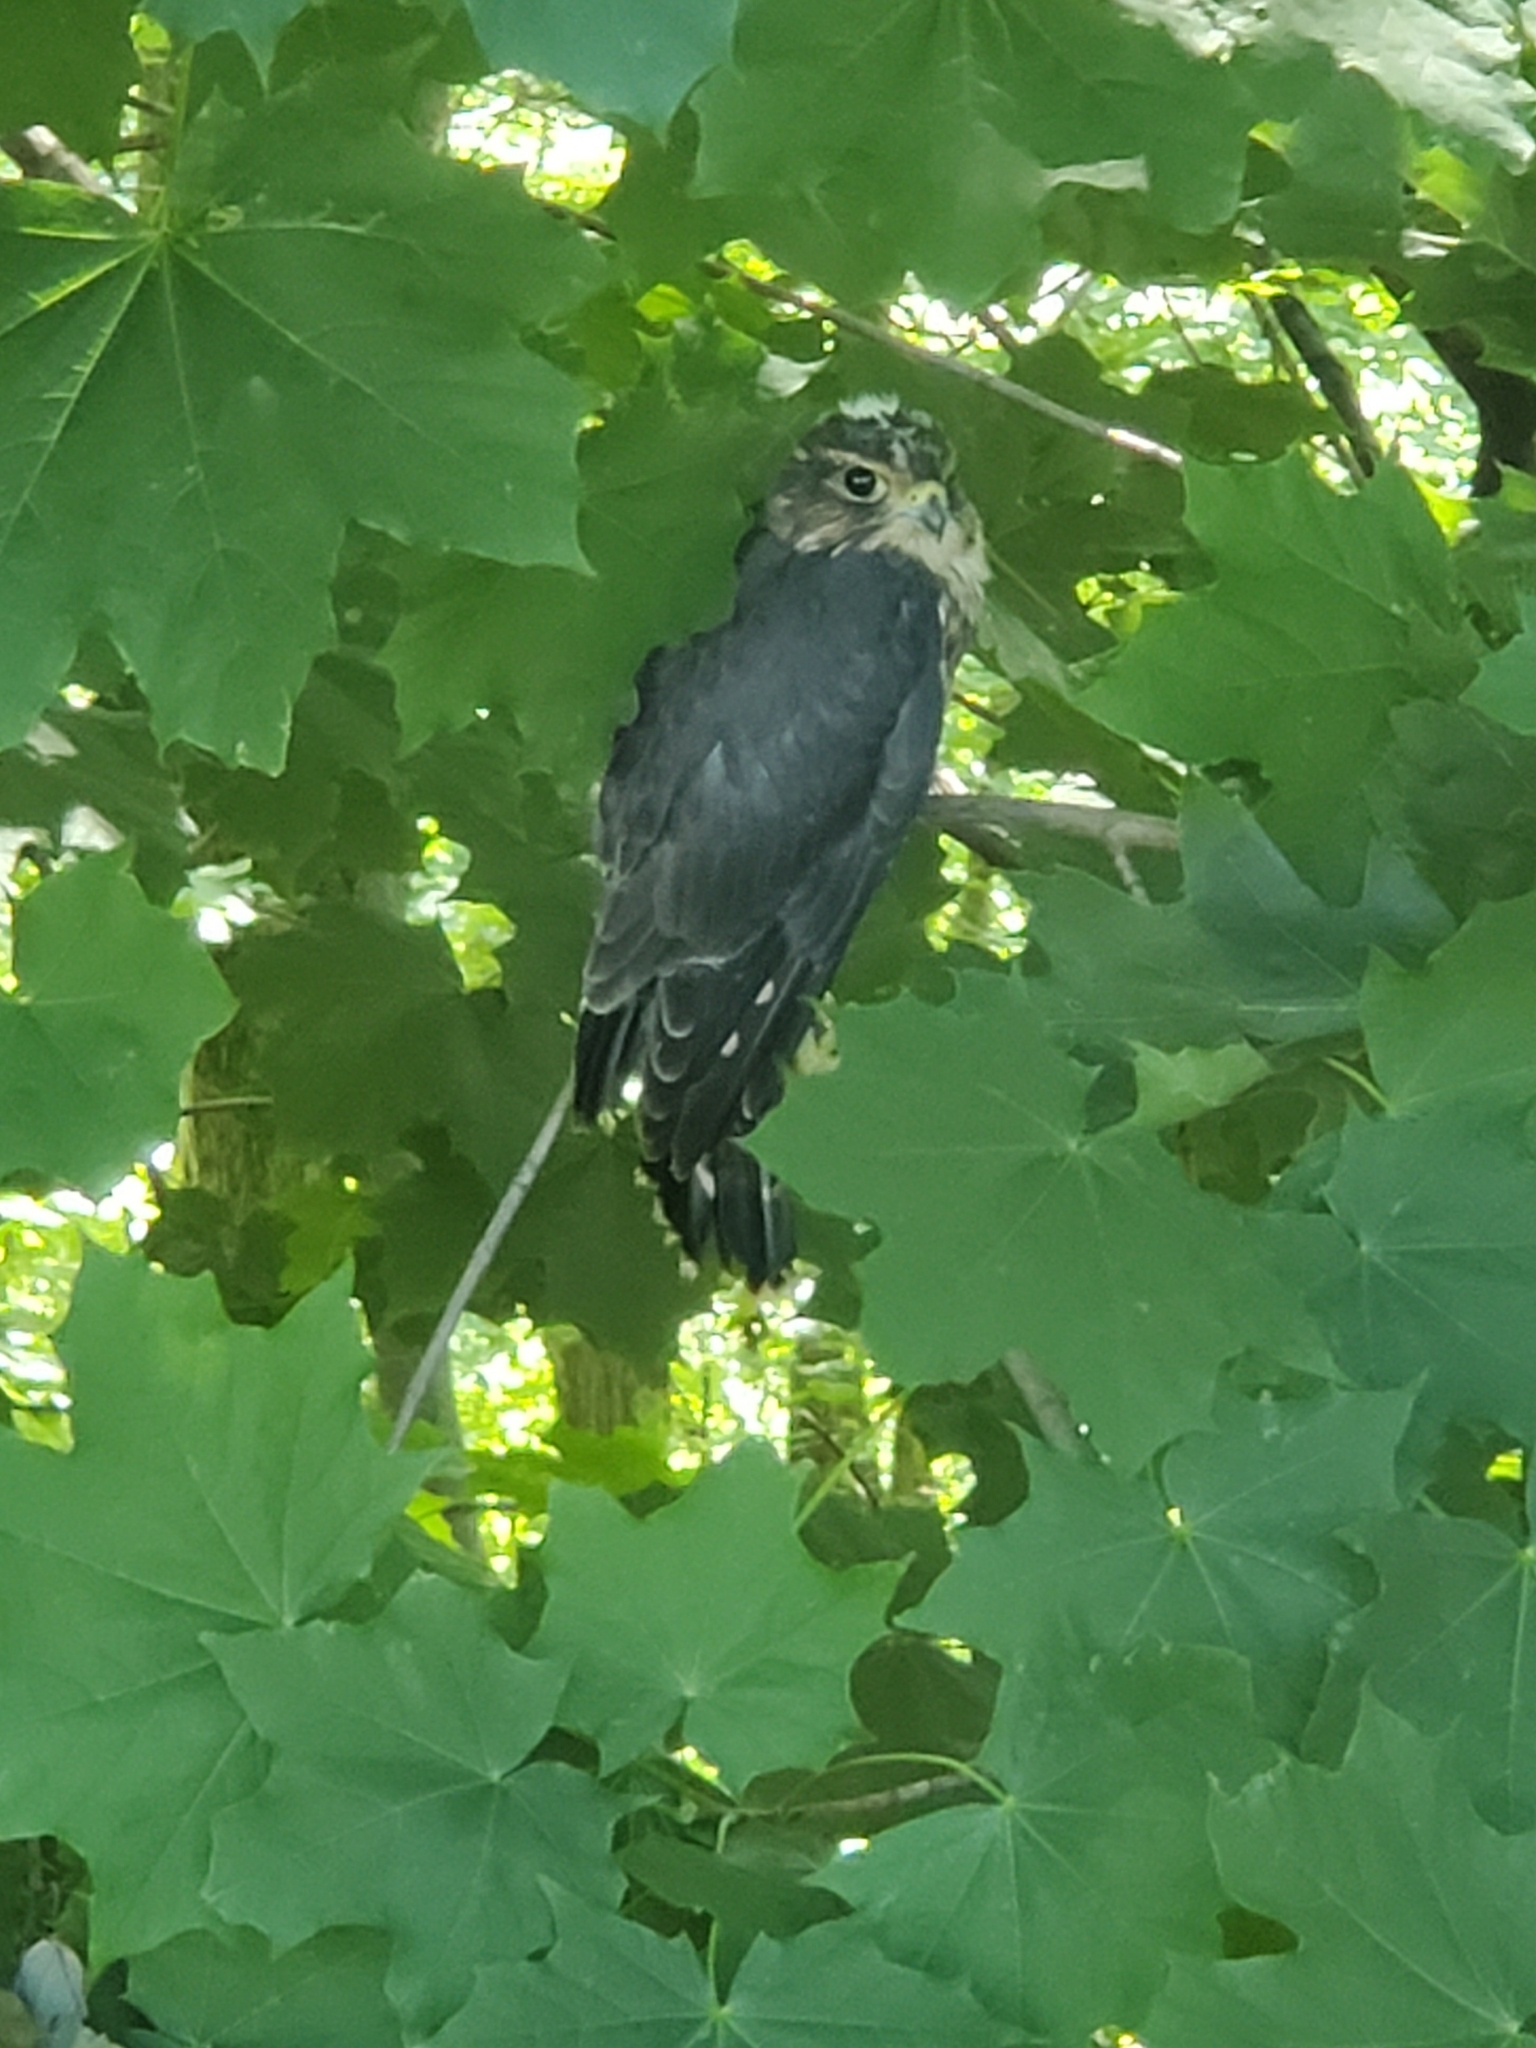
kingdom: Animalia
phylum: Chordata
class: Aves
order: Falconiformes
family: Falconidae
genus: Falco
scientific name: Falco columbarius
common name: Merlin
